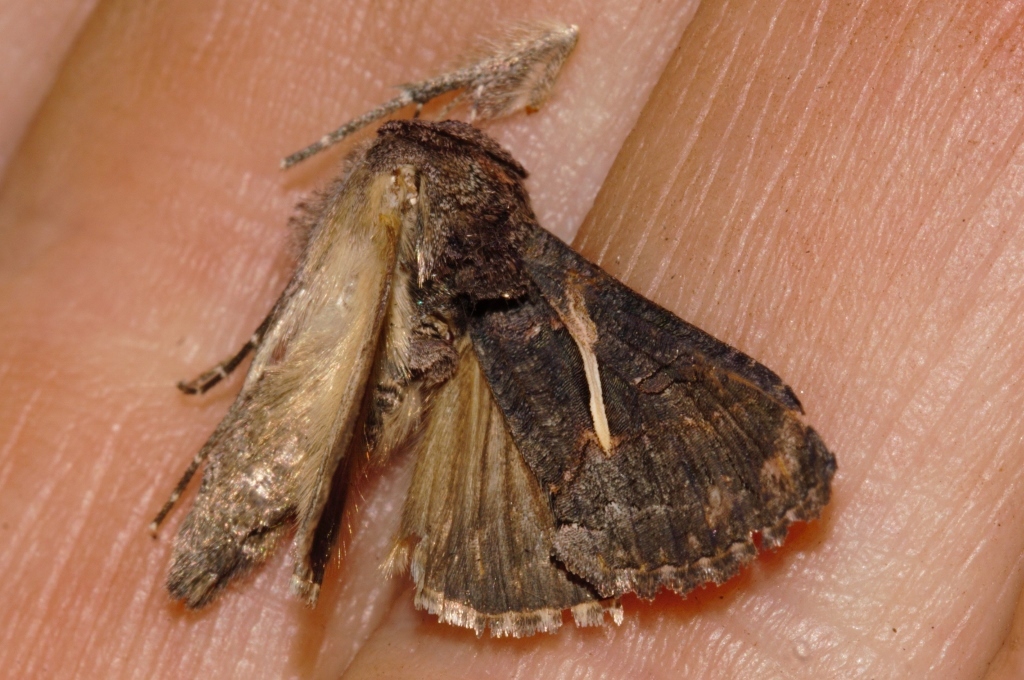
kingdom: Animalia
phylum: Arthropoda
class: Insecta
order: Lepidoptera
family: Noctuidae
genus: Vittaplusia
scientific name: Vittaplusia vittata
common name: Streaked plusia
